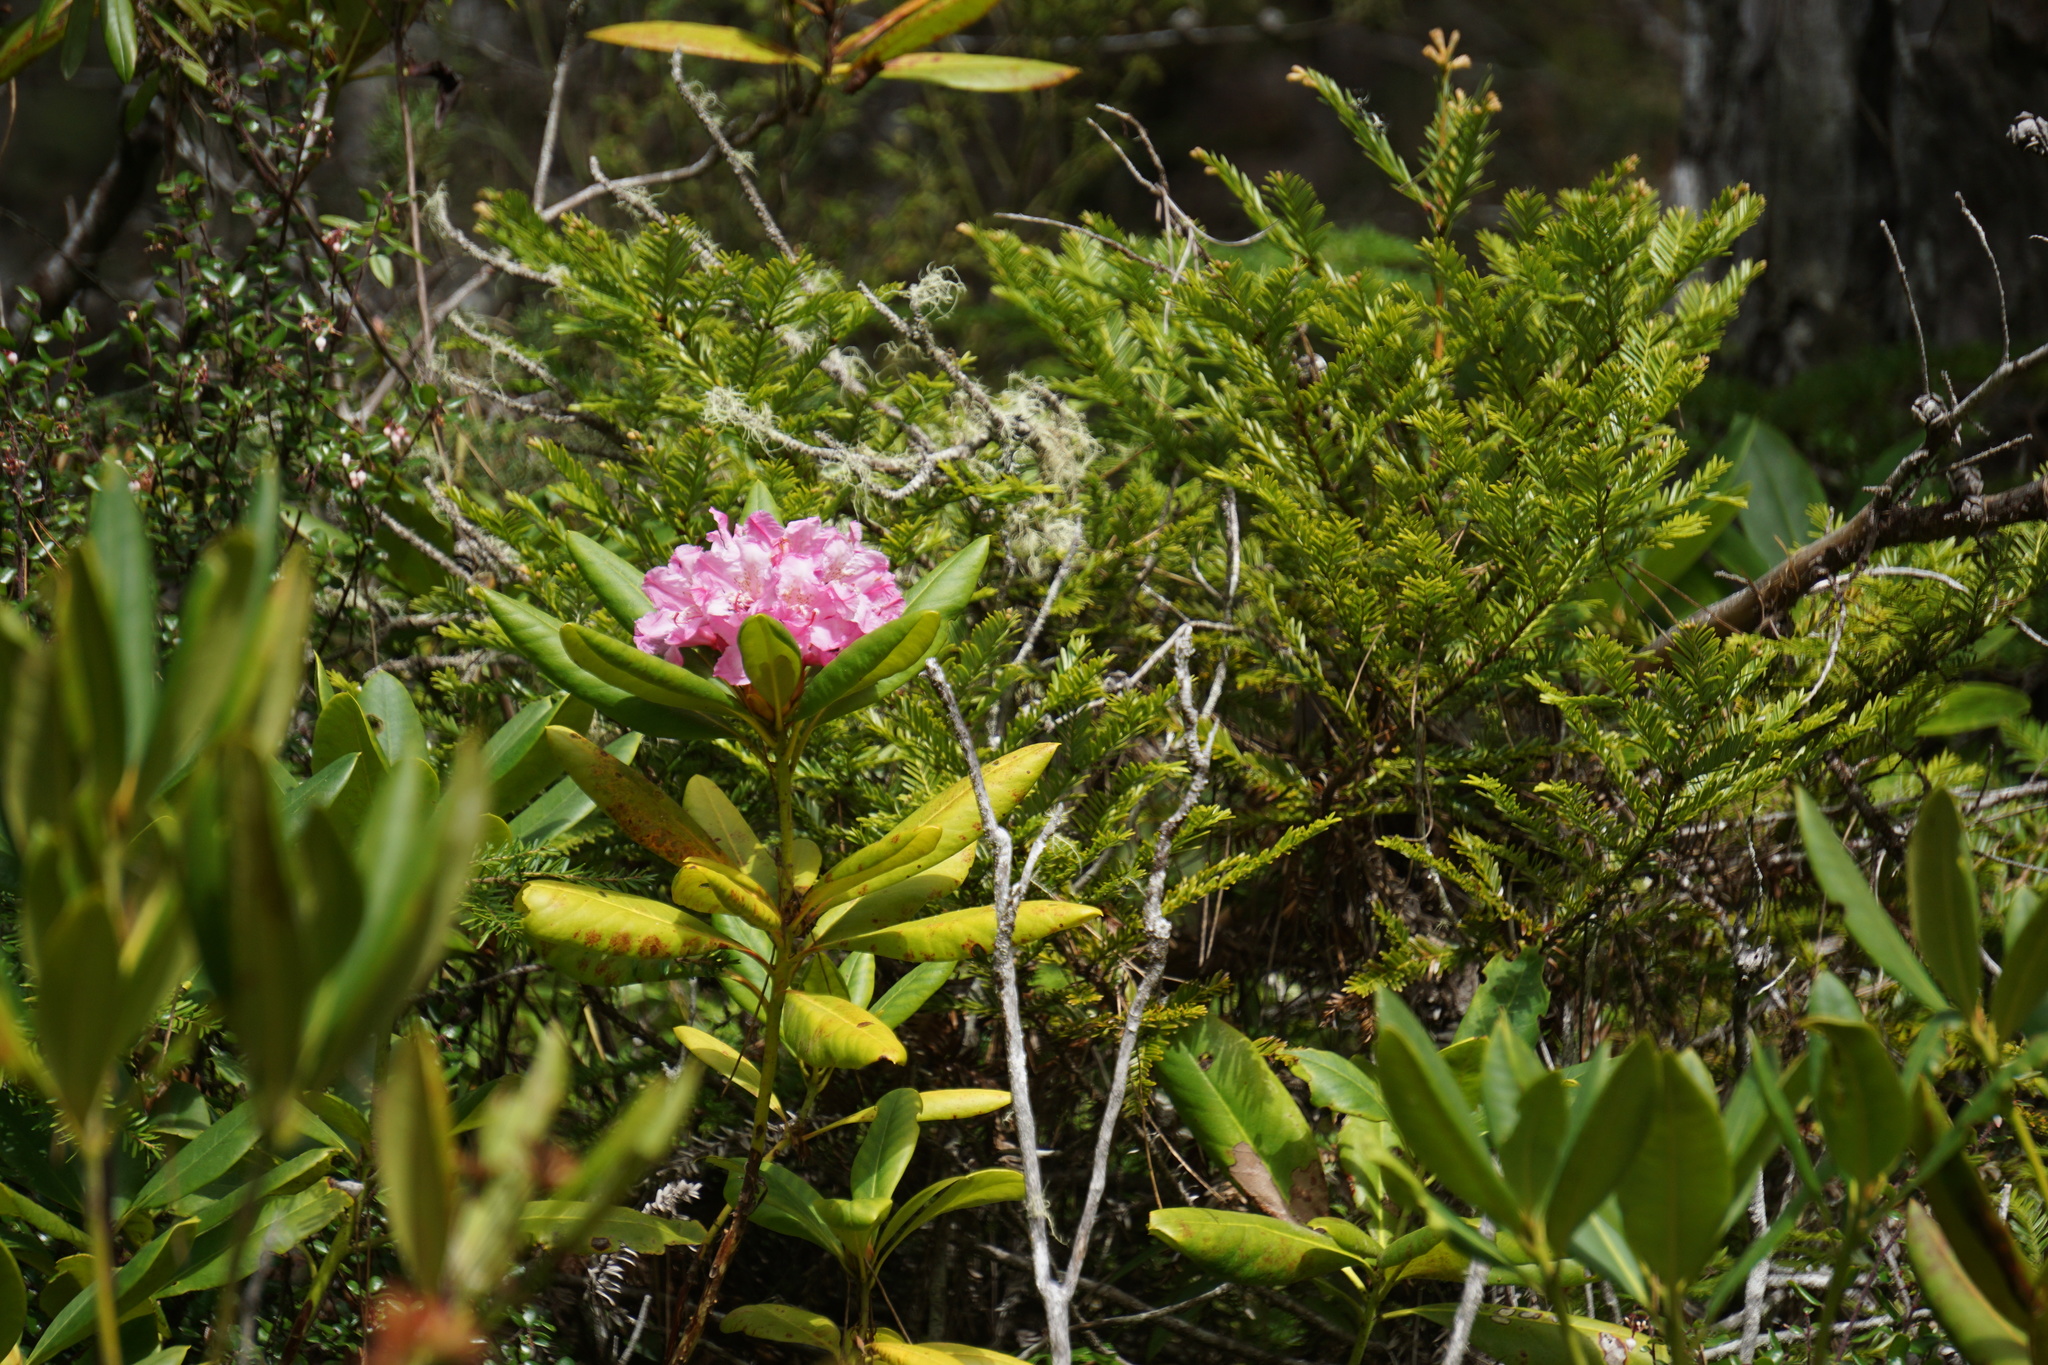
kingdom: Plantae
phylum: Tracheophyta
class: Magnoliopsida
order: Ericales
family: Ericaceae
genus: Rhododendron
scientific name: Rhododendron macrophyllum
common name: California rose bay
